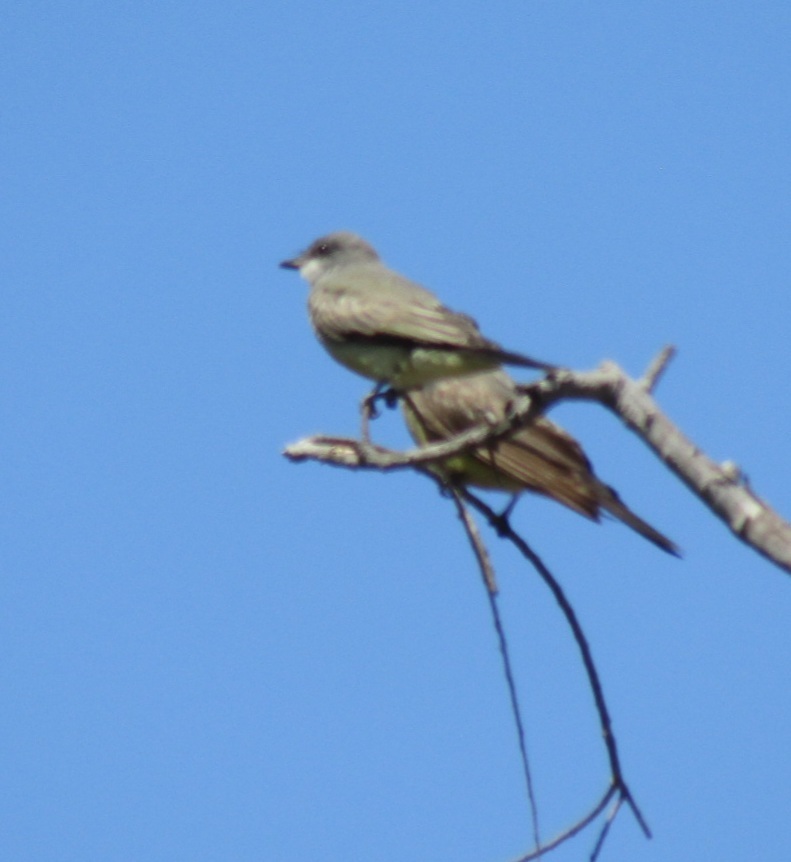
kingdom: Animalia
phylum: Chordata
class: Aves
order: Passeriformes
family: Tyrannidae
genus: Tyrannus
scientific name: Tyrannus vociferans
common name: Cassin's kingbird
